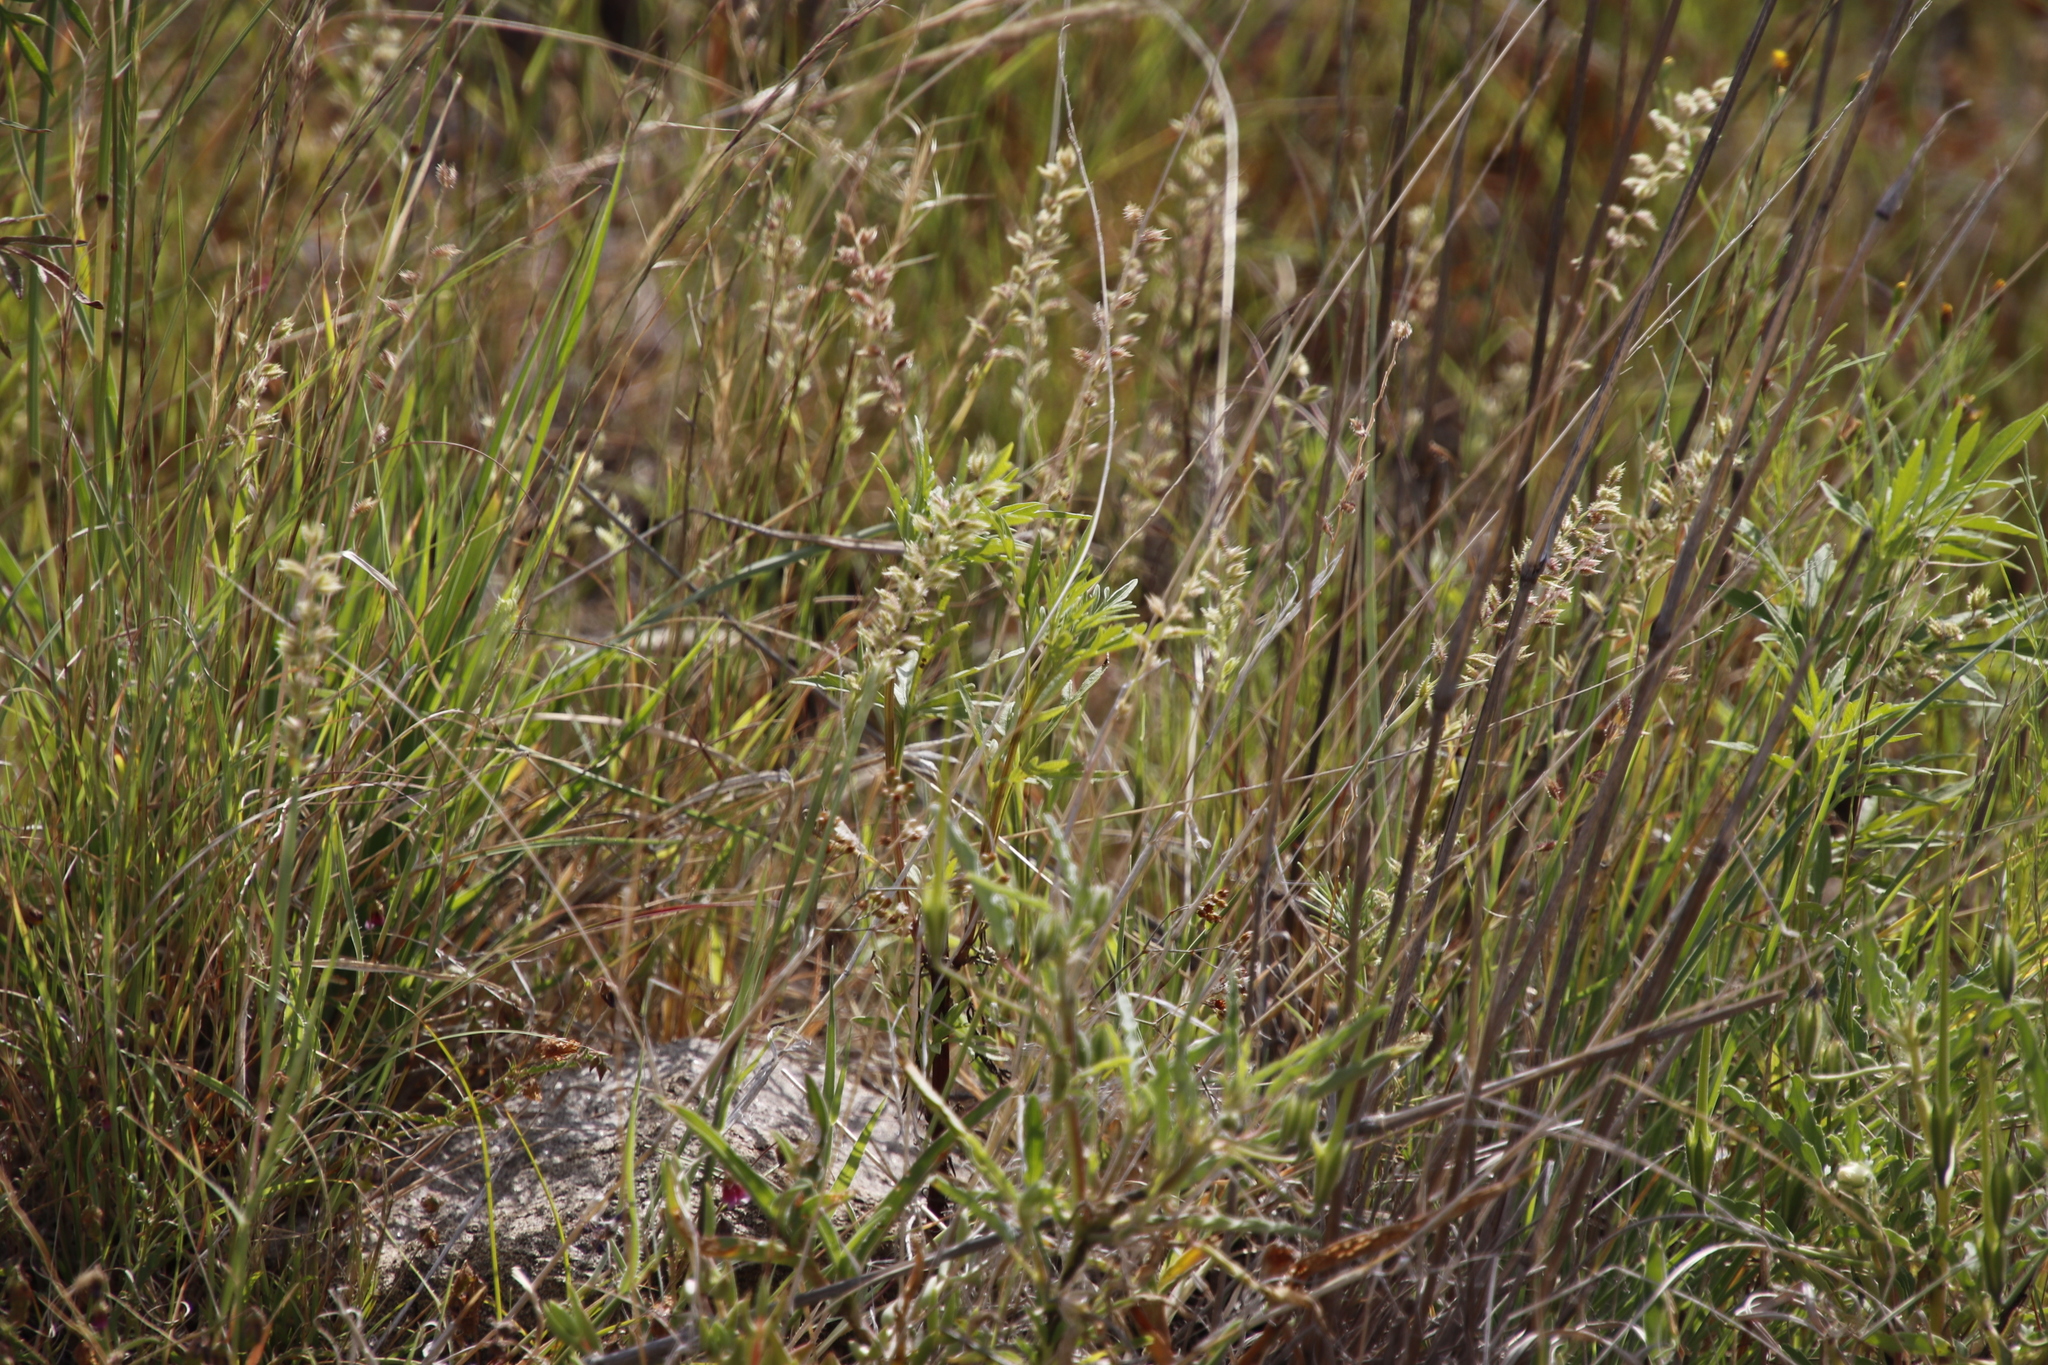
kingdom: Plantae
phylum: Tracheophyta
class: Magnoliopsida
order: Asterales
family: Asteraceae
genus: Tagetes
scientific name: Tagetes minuta
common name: Muster john henry
